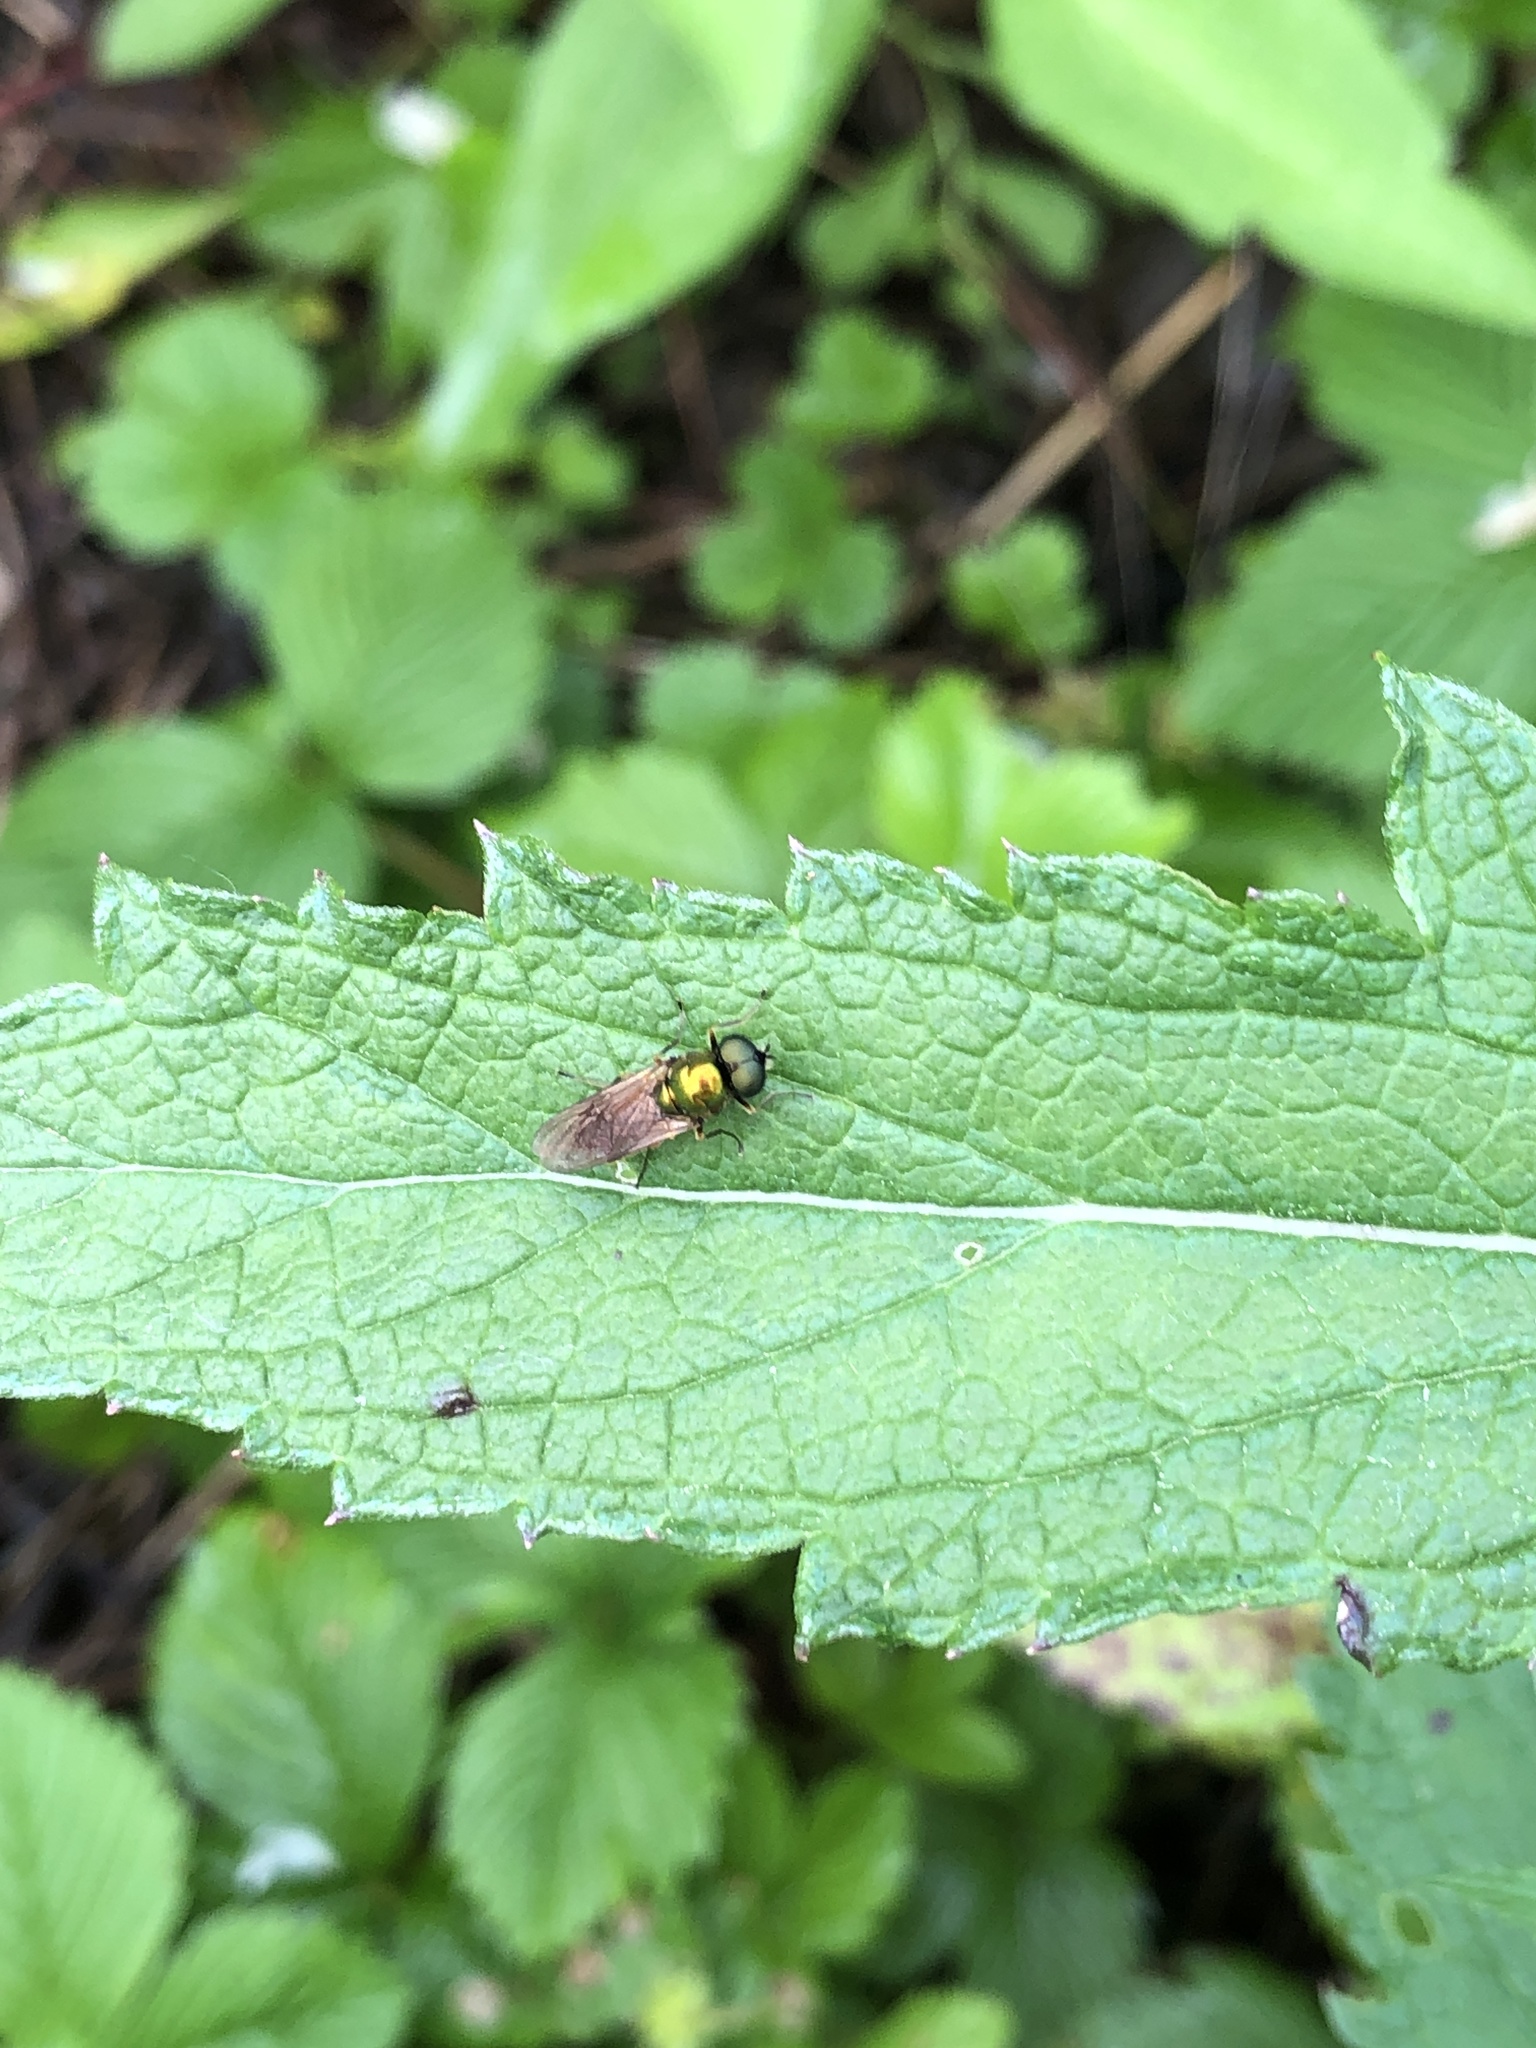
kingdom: Animalia
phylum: Arthropoda
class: Insecta
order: Diptera
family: Stratiomyidae
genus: Chloromyia
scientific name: Chloromyia formosa
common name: Soldier fly
